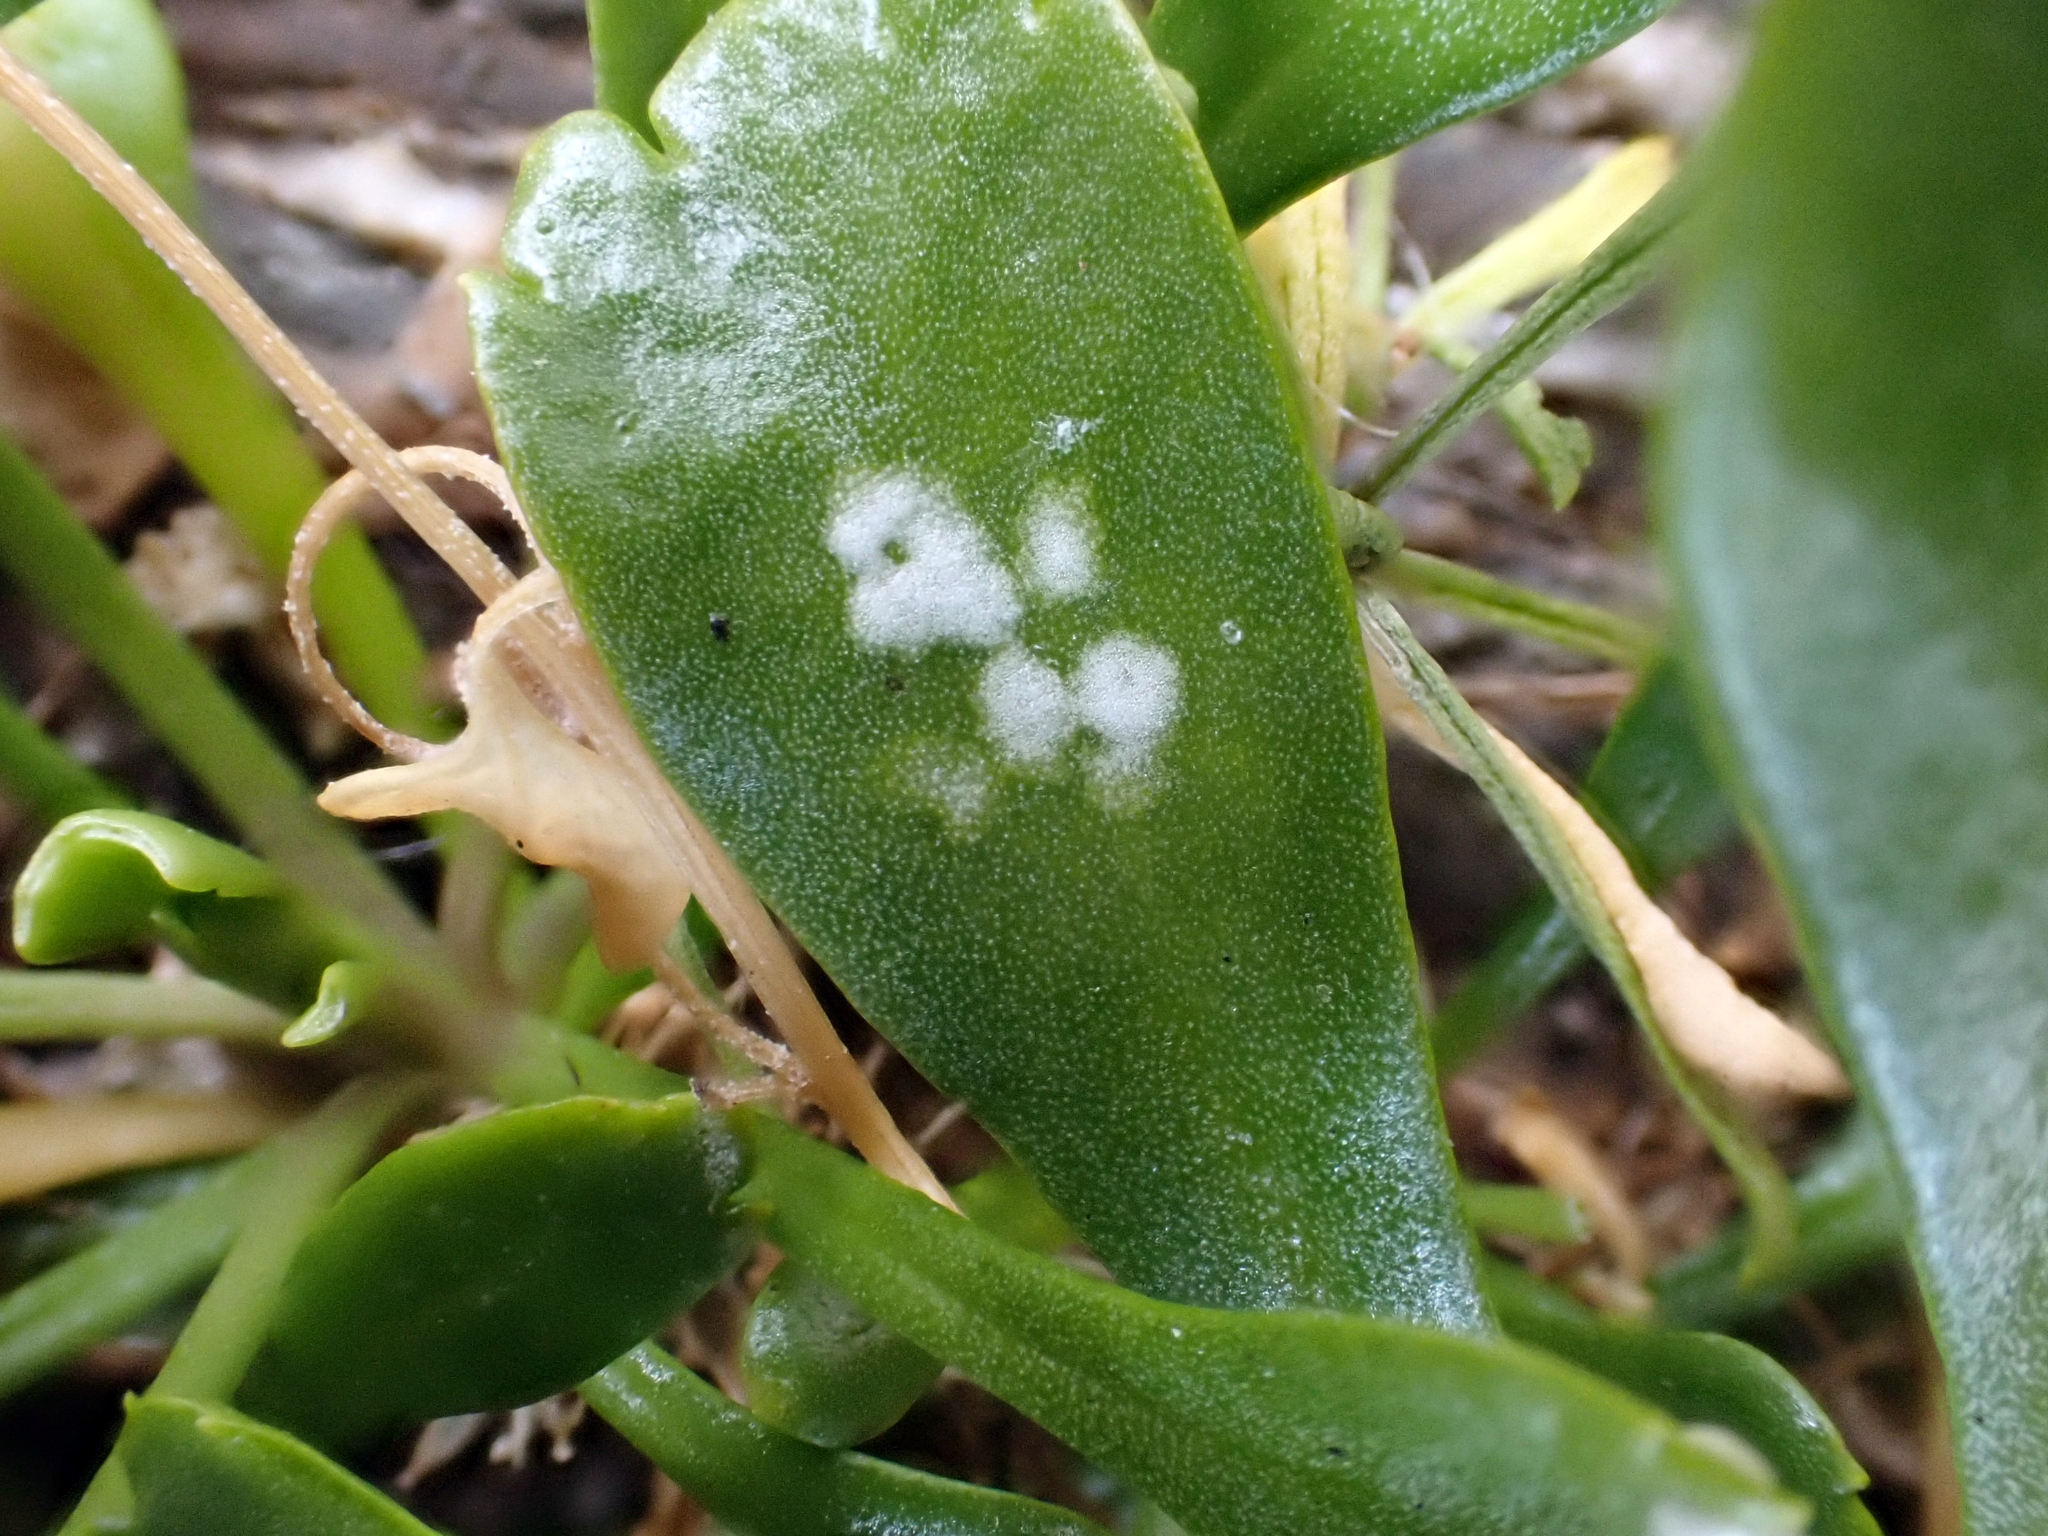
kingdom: Chromista
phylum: Oomycota
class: Peronosporea
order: Albuginales
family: Albuginaceae
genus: Albugo
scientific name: Albugo lepidii
